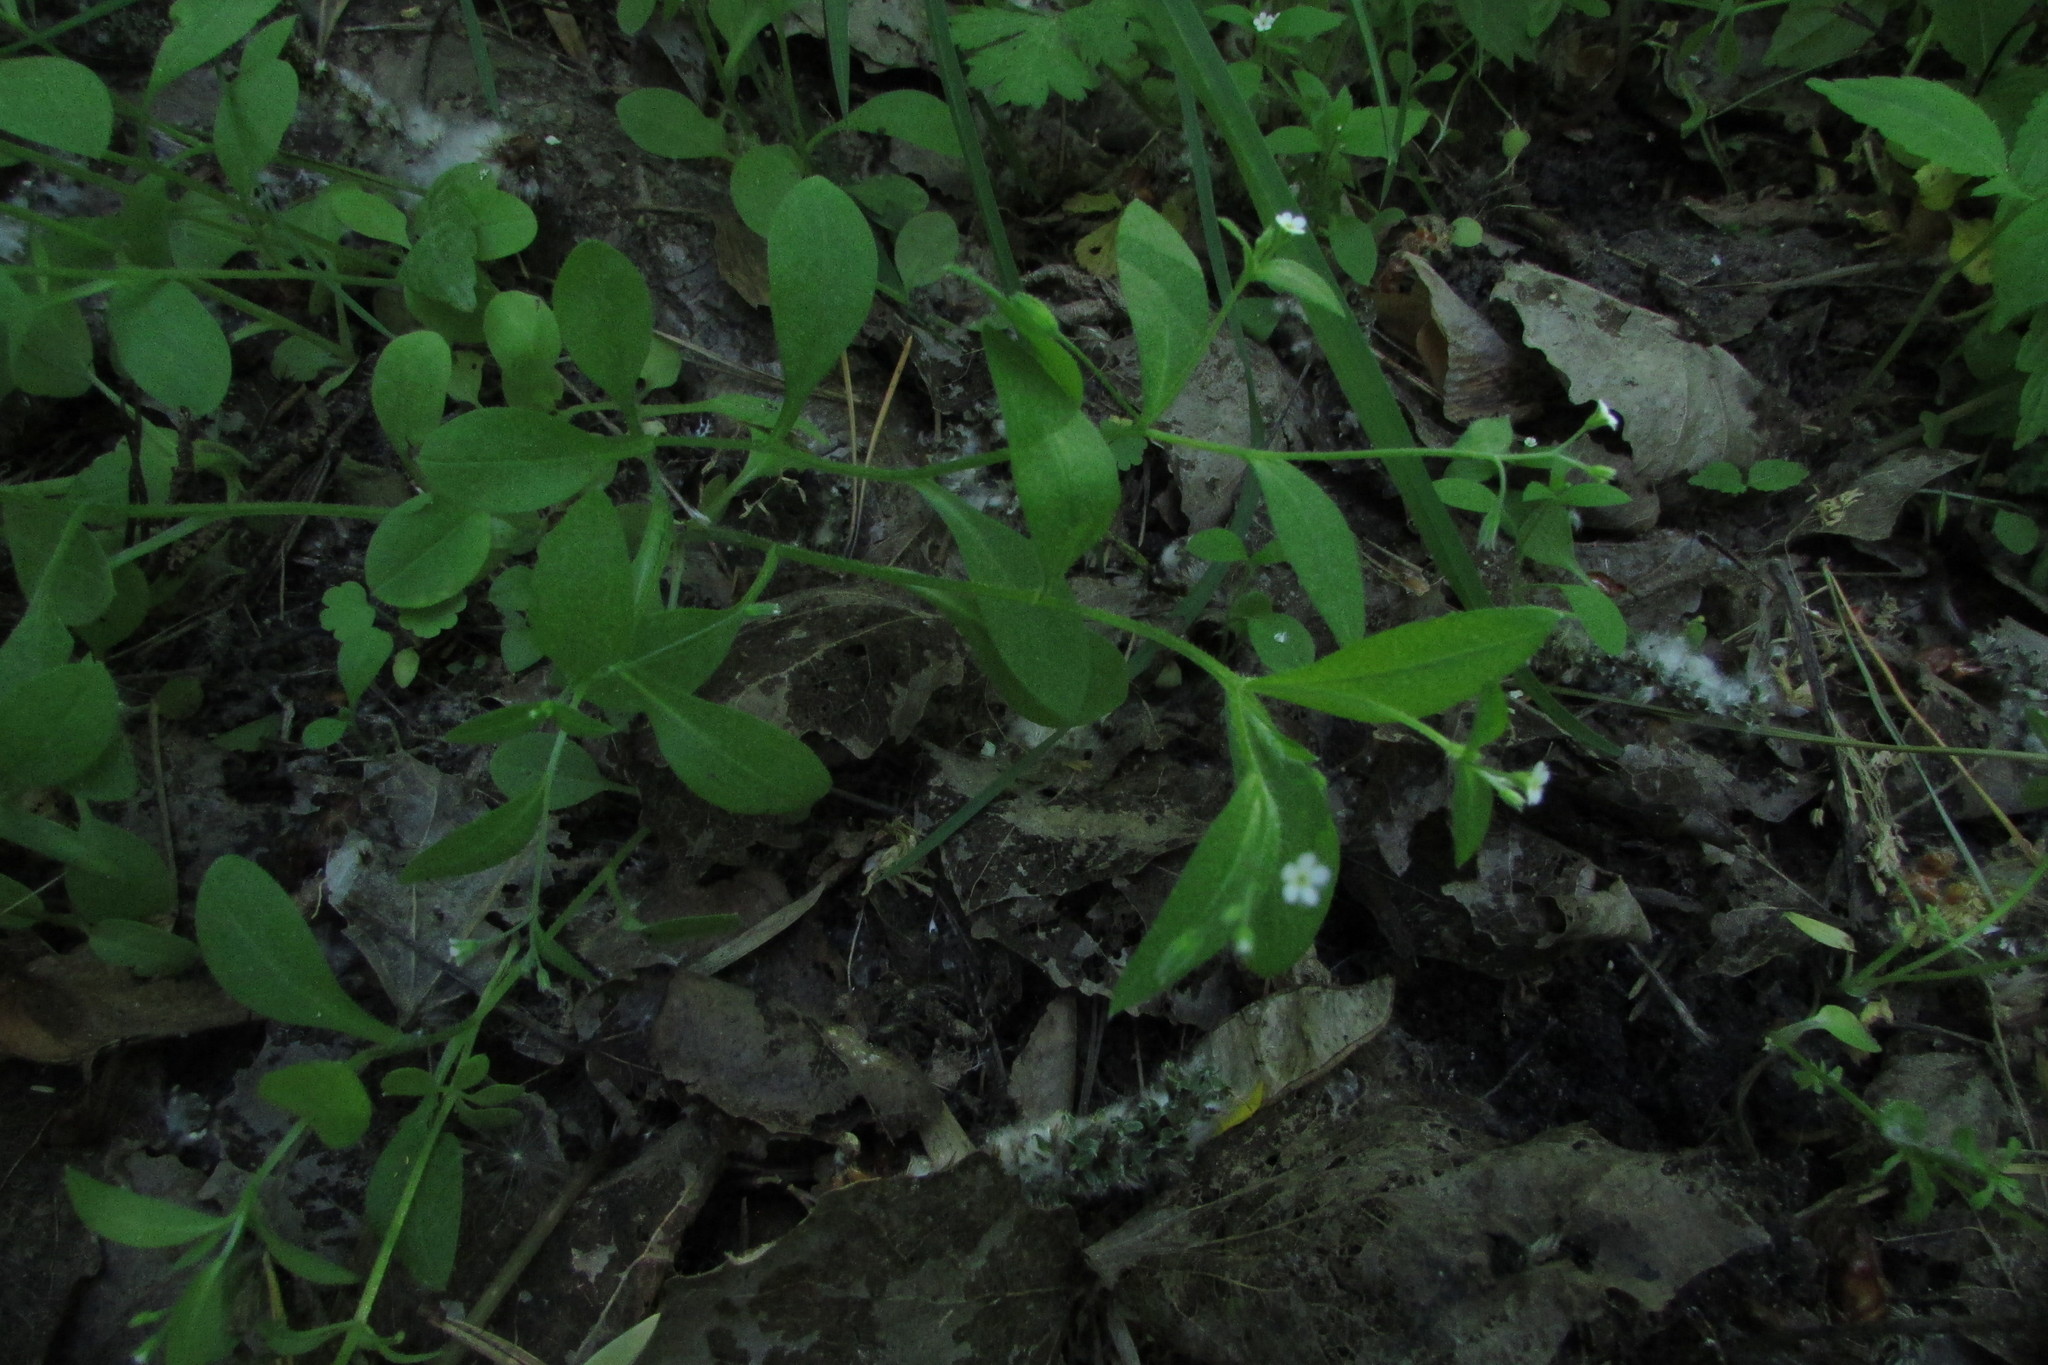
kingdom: Plantae
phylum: Tracheophyta
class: Magnoliopsida
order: Boraginales
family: Boraginaceae
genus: Myosotis
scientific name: Myosotis sparsiflora
